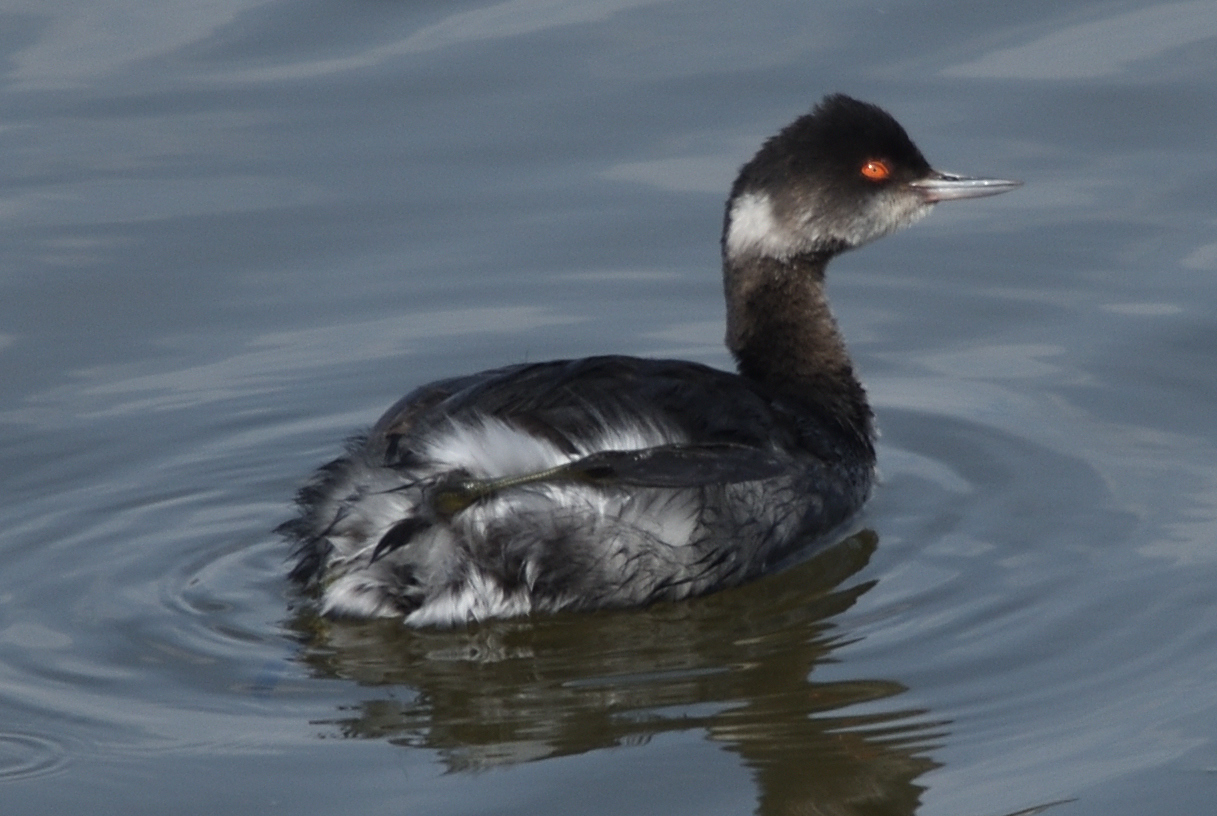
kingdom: Animalia
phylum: Chordata
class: Aves
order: Podicipediformes
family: Podicipedidae
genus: Podiceps
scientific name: Podiceps nigricollis
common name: Black-necked grebe
